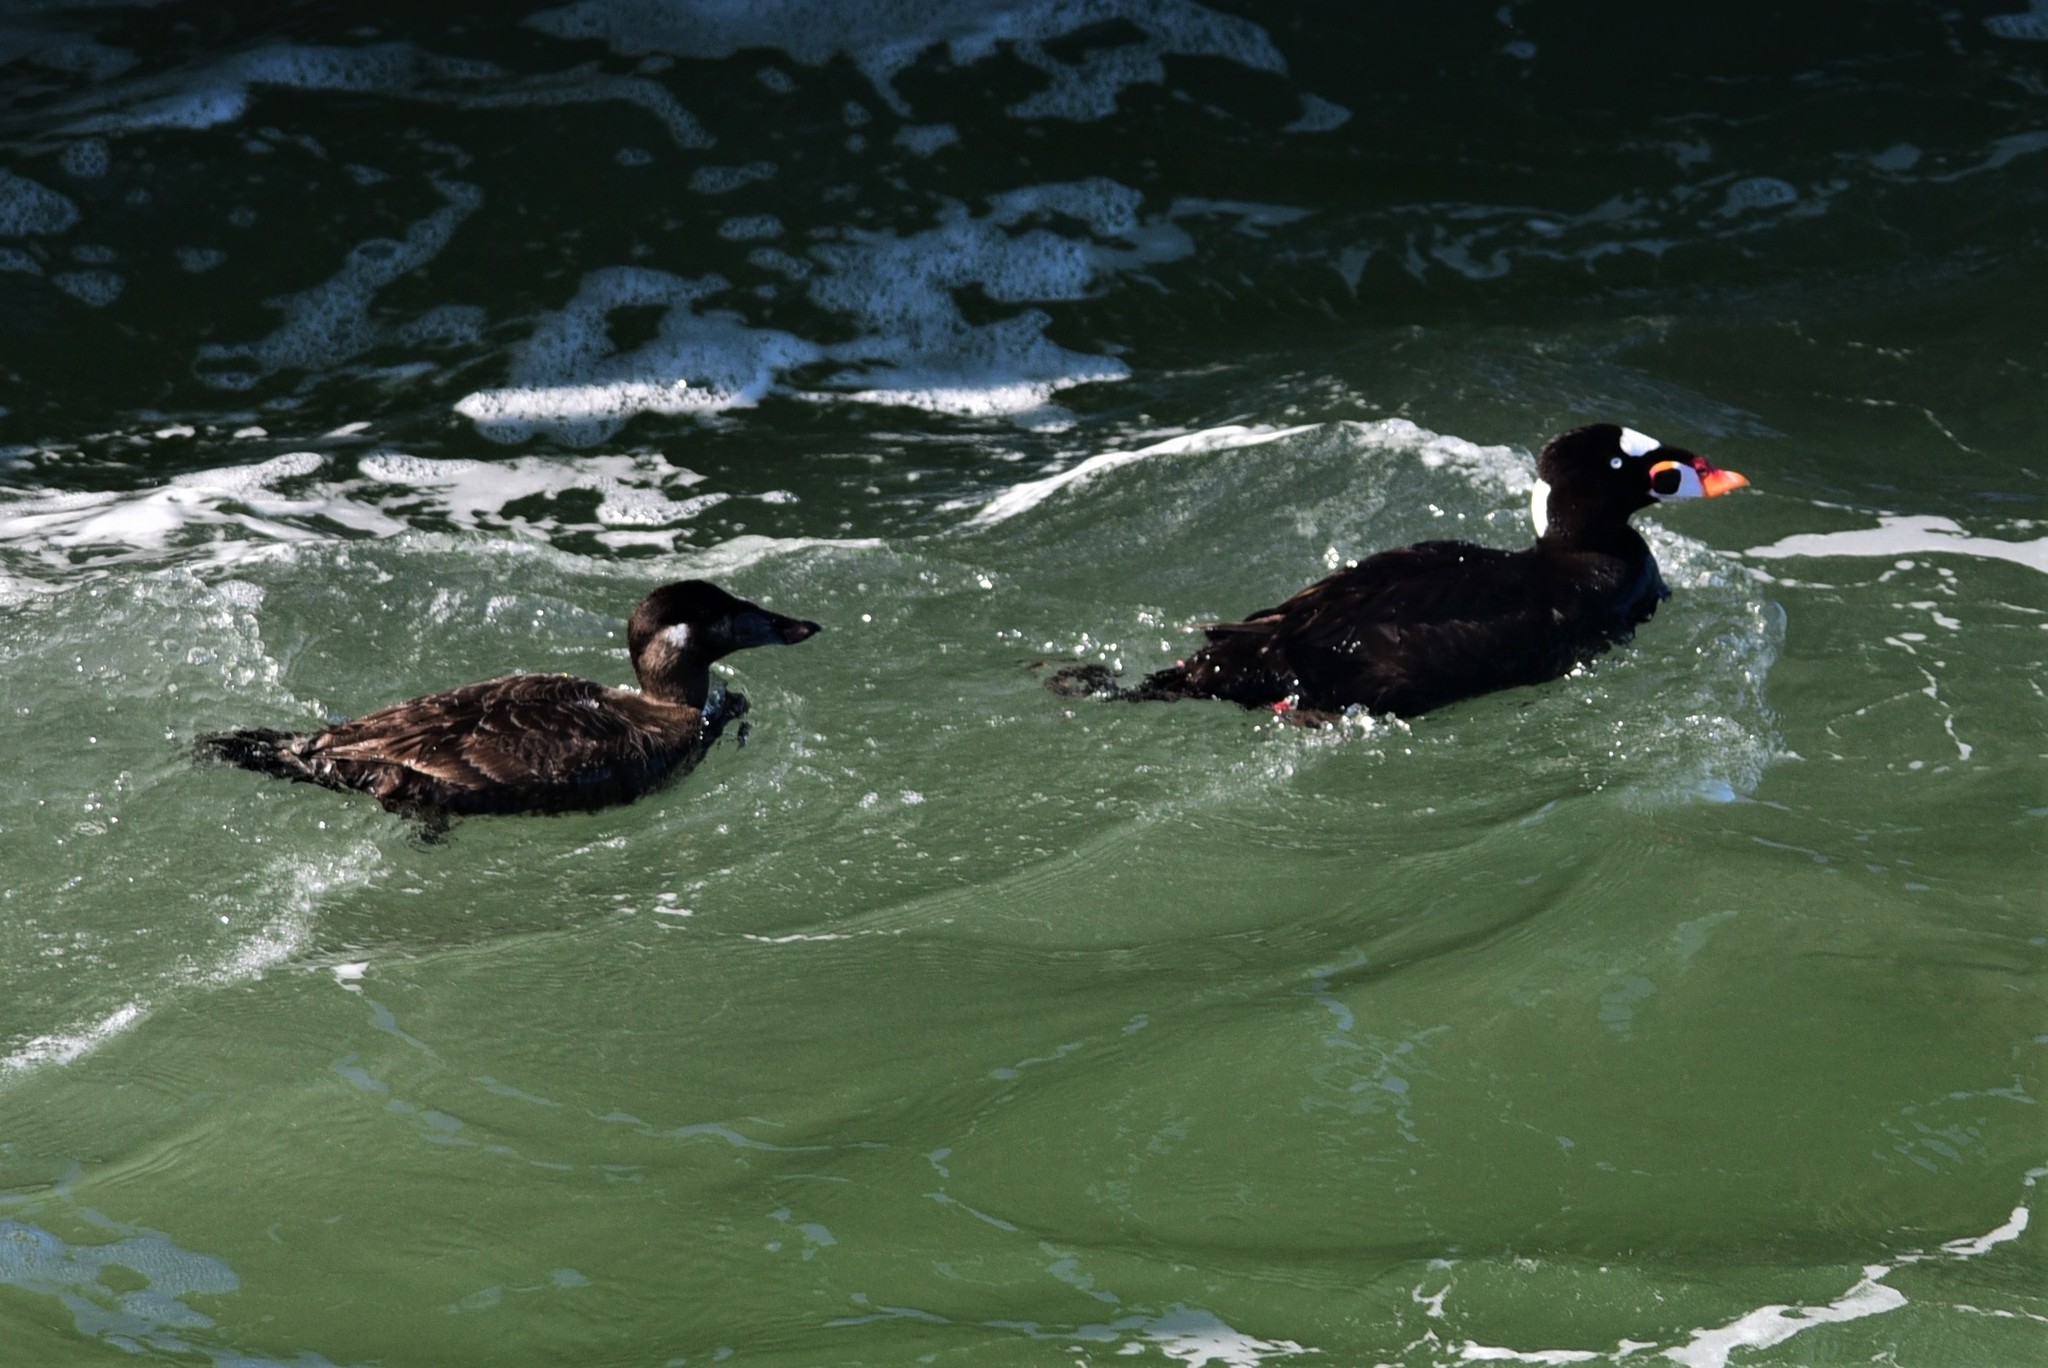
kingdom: Animalia
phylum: Chordata
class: Aves
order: Anseriformes
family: Anatidae
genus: Melanitta
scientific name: Melanitta perspicillata
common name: Surf scoter
